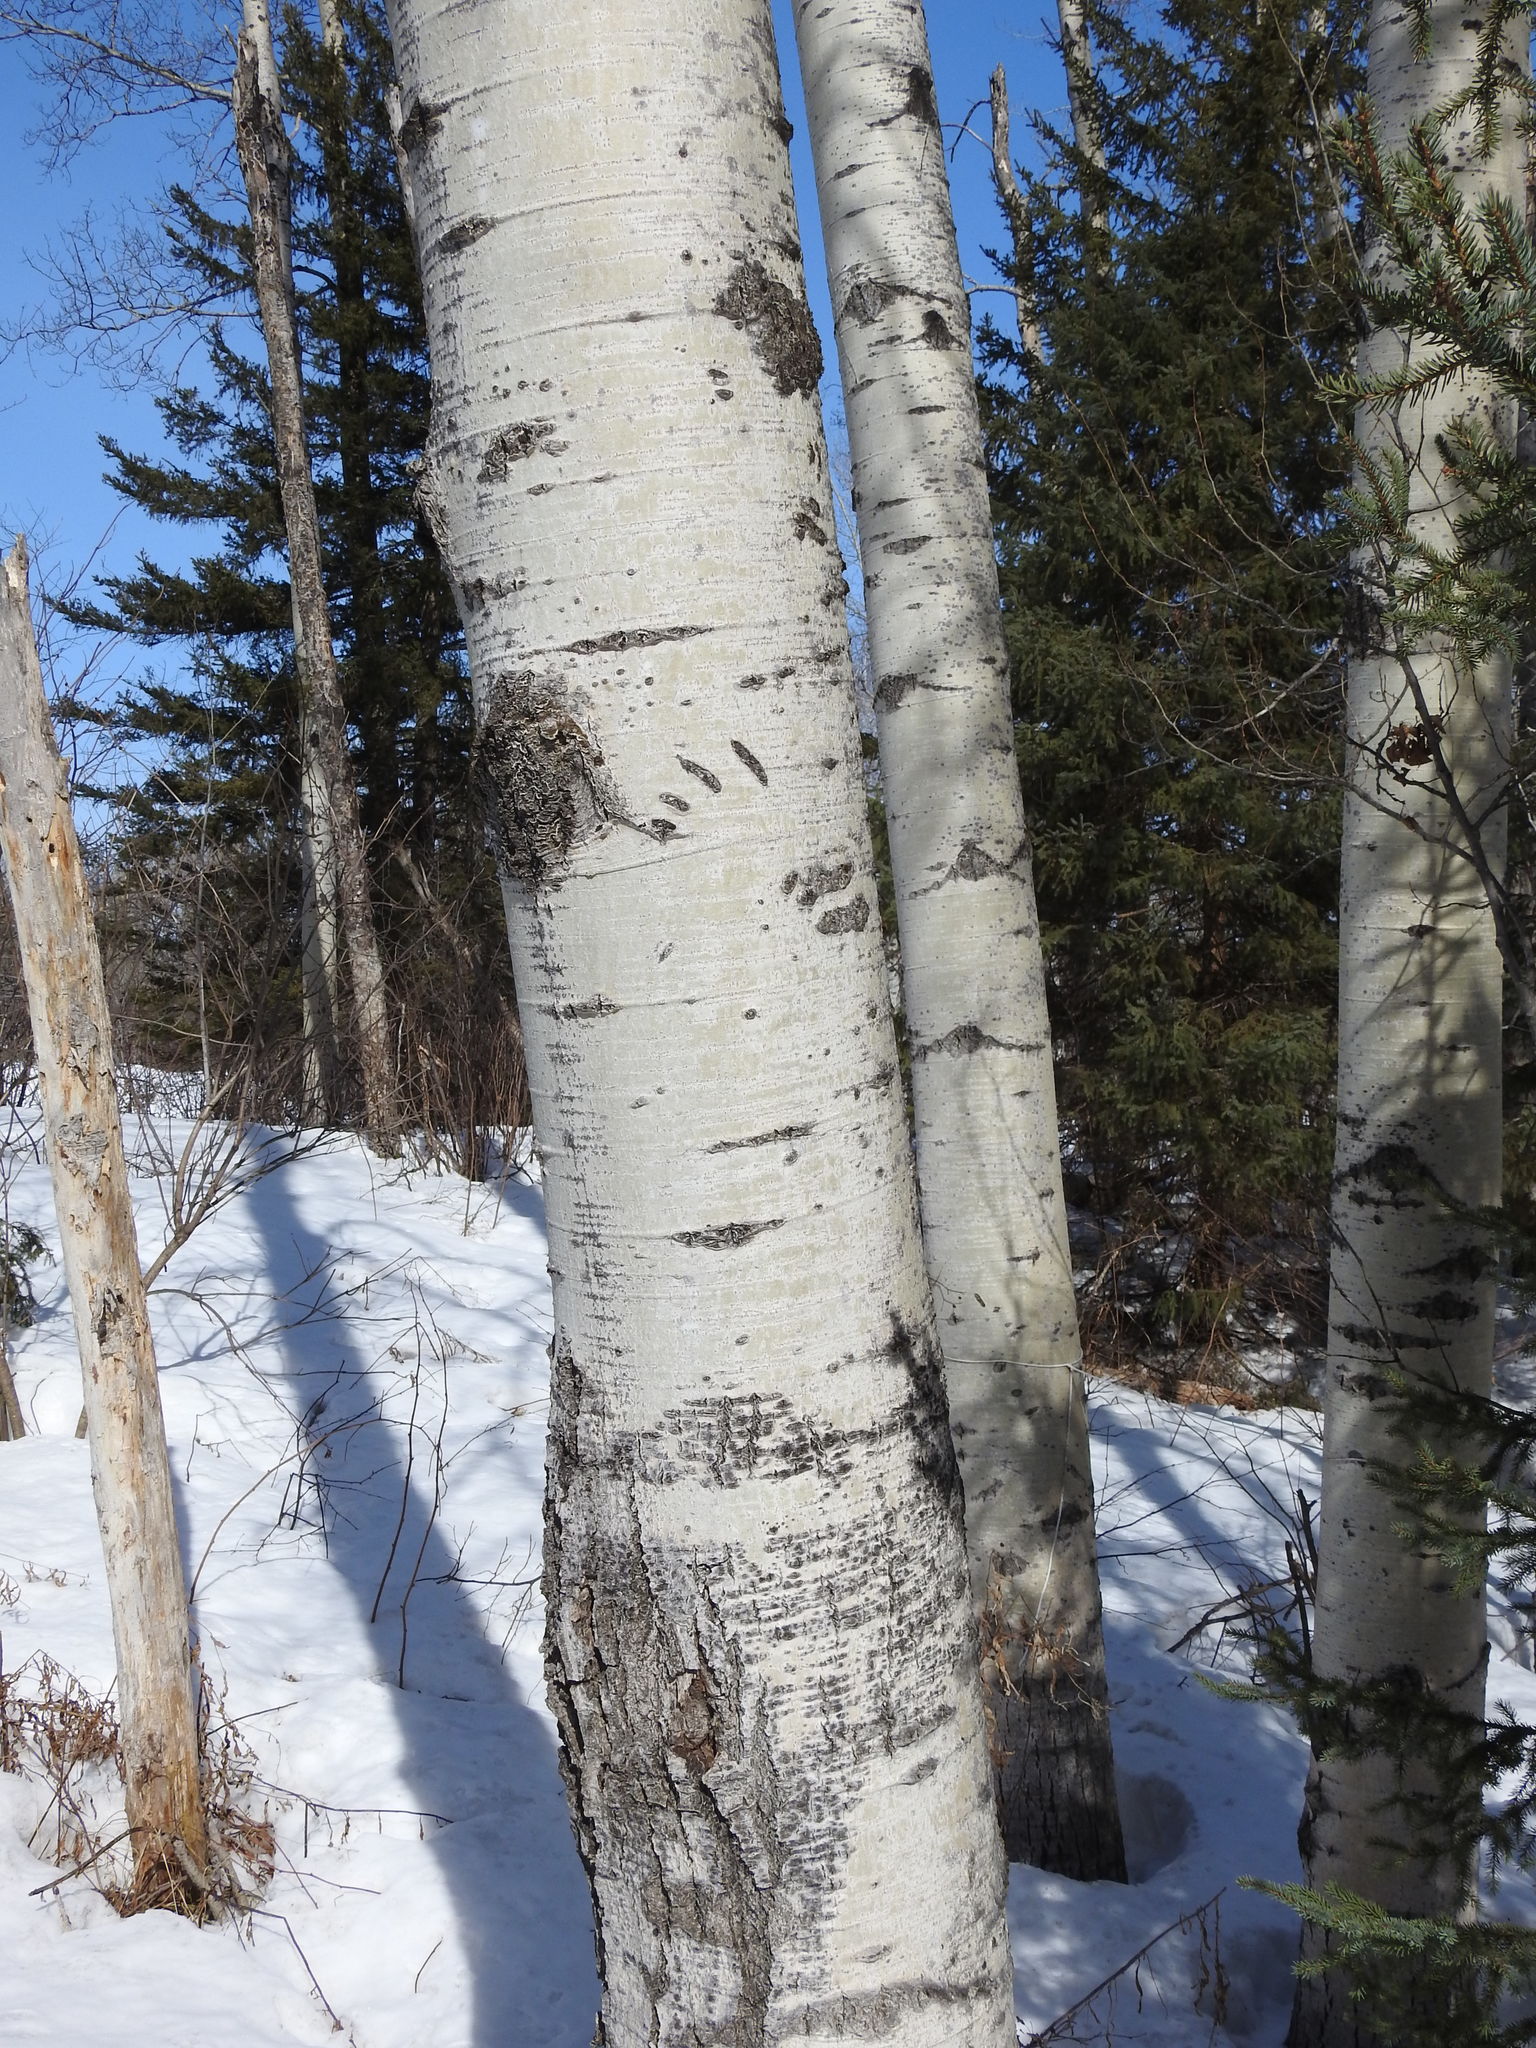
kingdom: Plantae
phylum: Tracheophyta
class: Magnoliopsida
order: Malpighiales
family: Salicaceae
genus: Populus
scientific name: Populus tremuloides
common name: Quaking aspen
